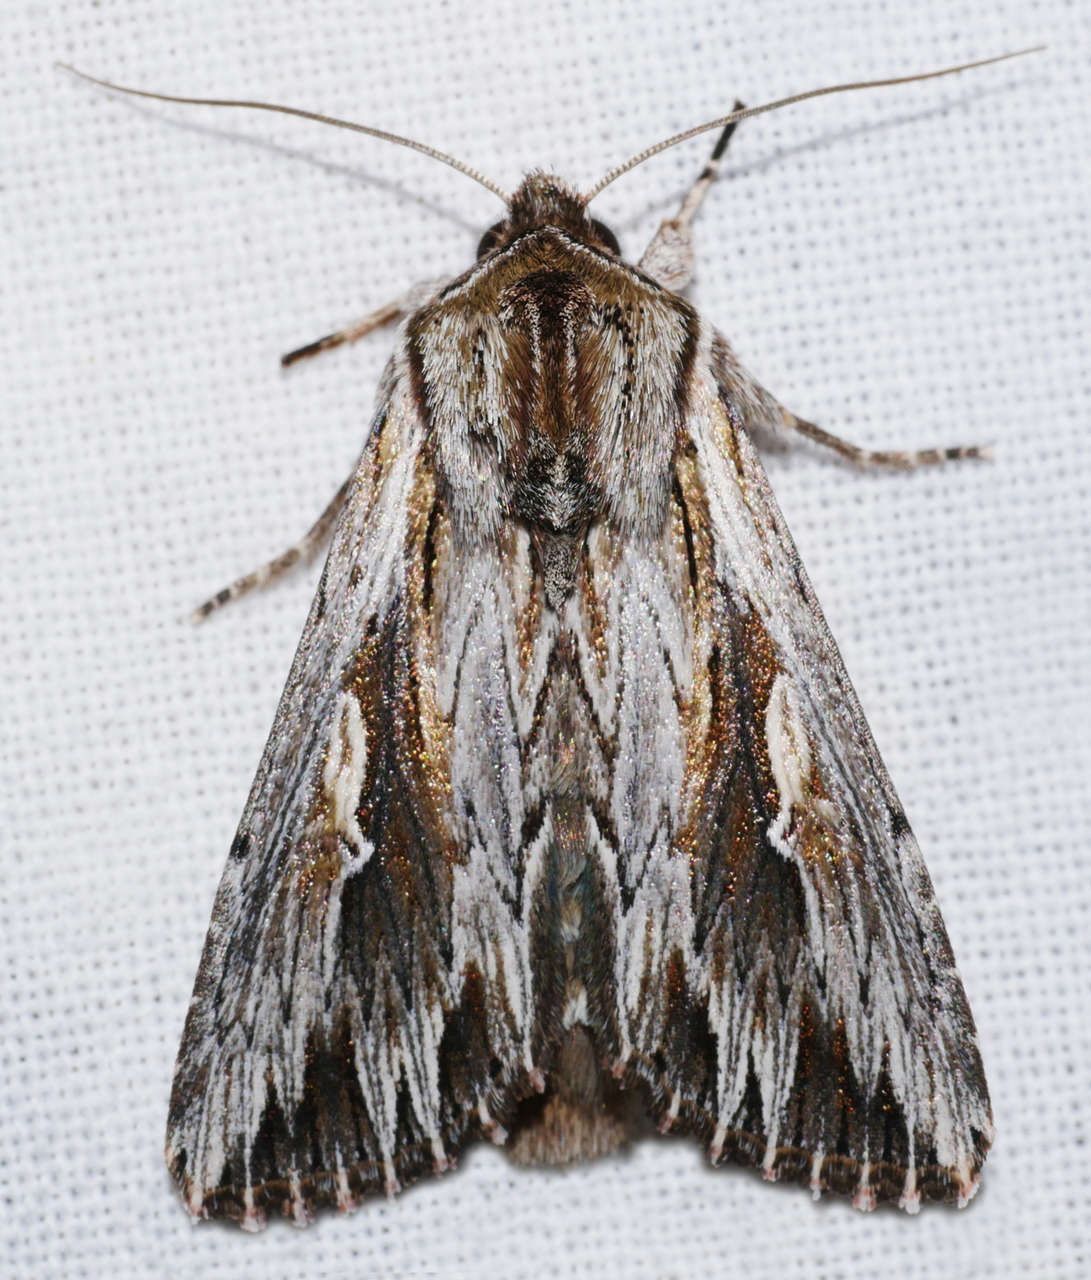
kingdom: Animalia
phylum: Arthropoda
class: Insecta
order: Lepidoptera
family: Noctuidae
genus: Persectania
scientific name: Persectania ewingii
